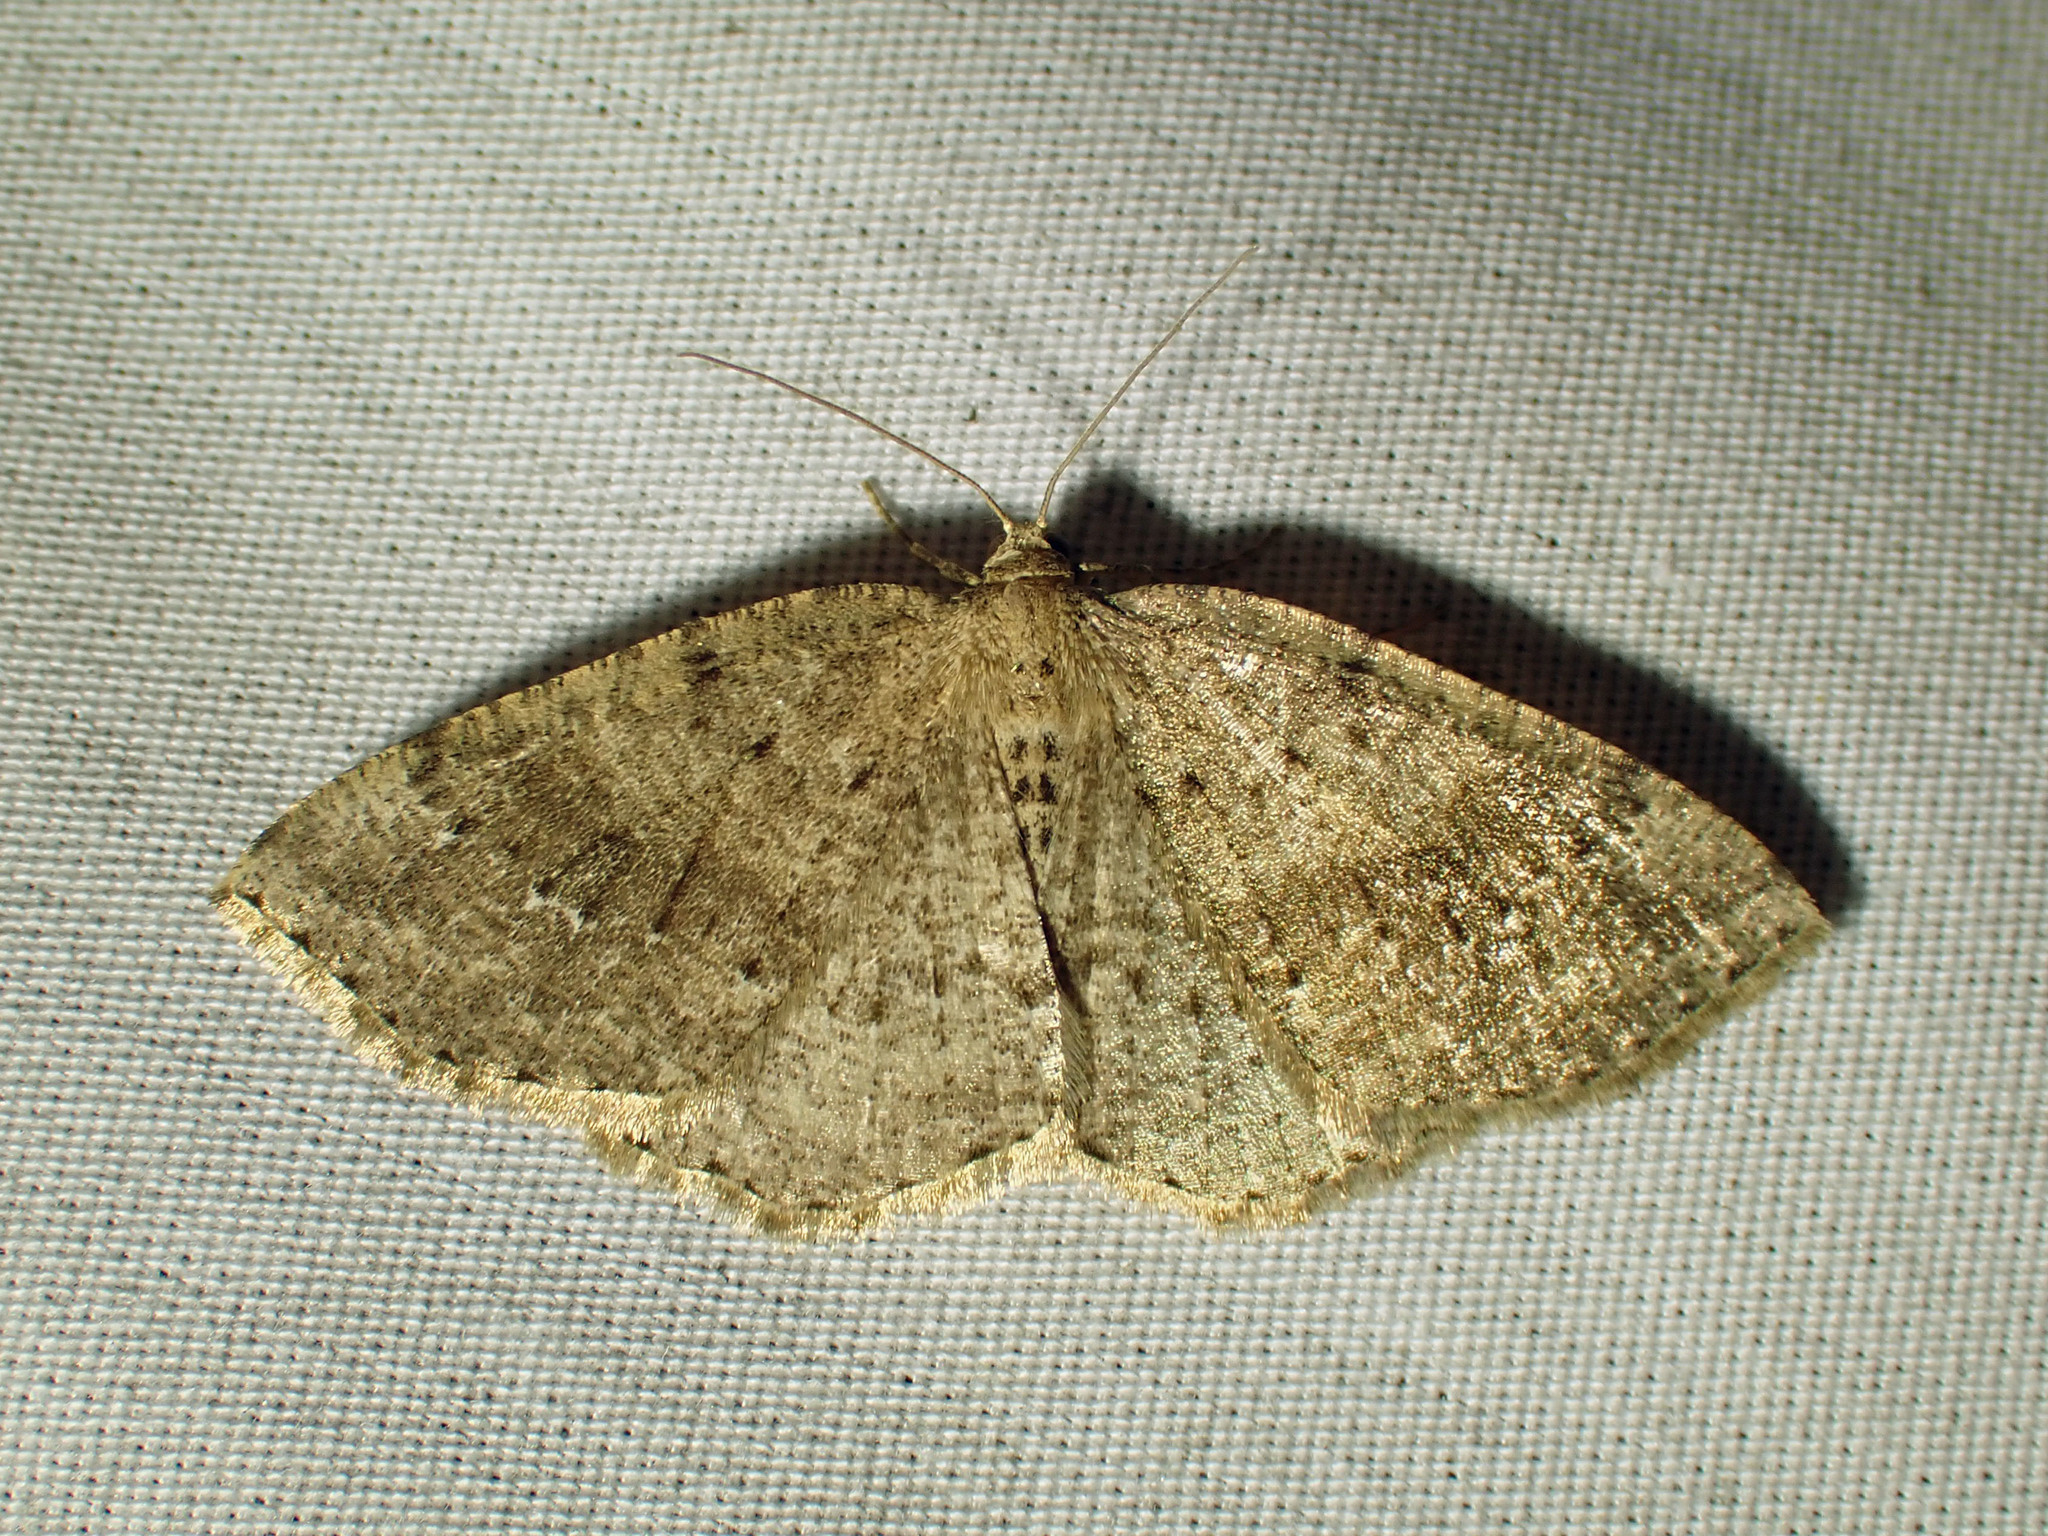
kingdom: Animalia
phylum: Arthropoda
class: Insecta
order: Lepidoptera
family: Geometridae
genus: Homochlodes
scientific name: Homochlodes fritillaria
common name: Pale homochlodes
